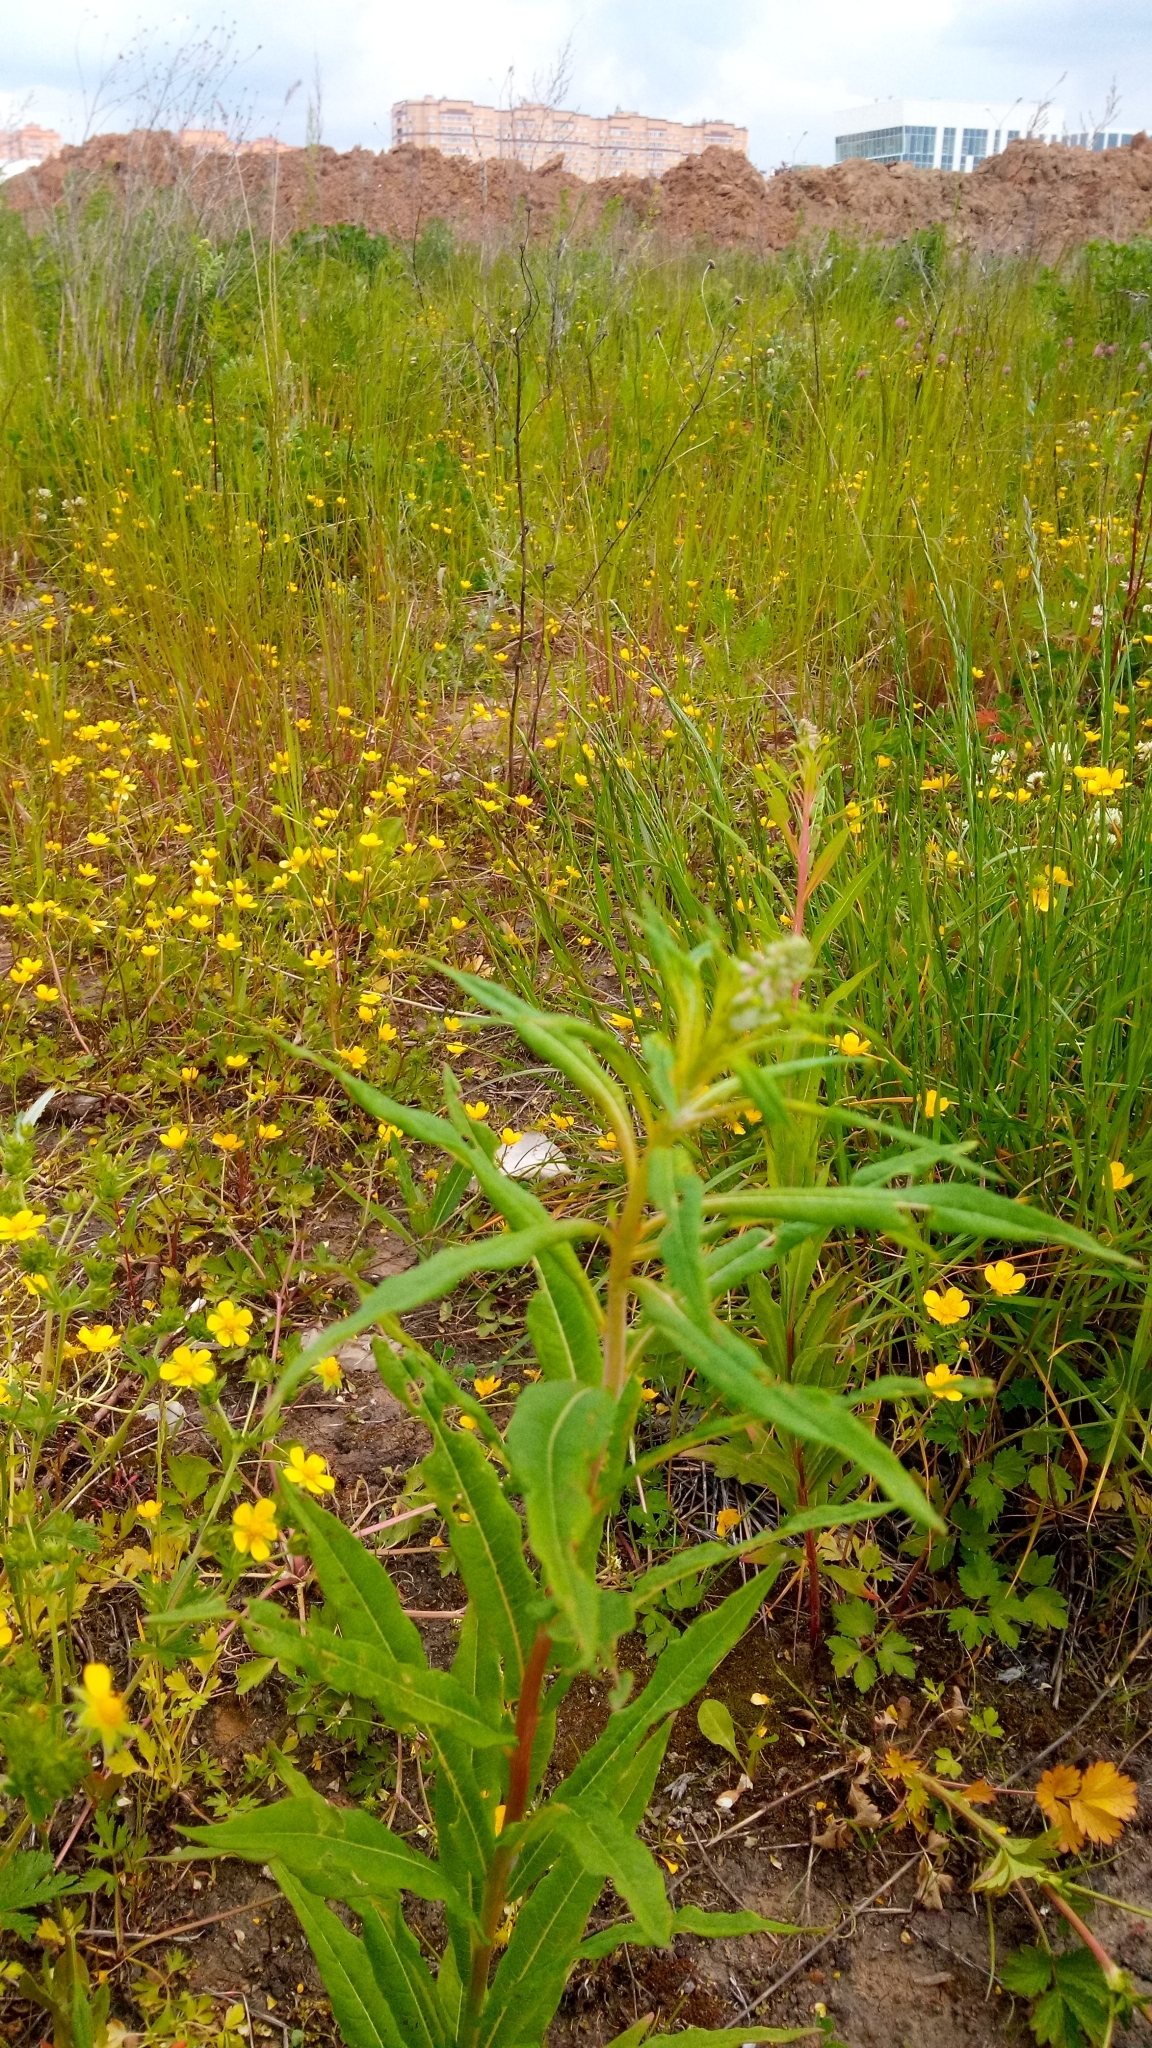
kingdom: Plantae
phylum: Tracheophyta
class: Magnoliopsida
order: Myrtales
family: Onagraceae
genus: Chamaenerion
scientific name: Chamaenerion angustifolium
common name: Fireweed
